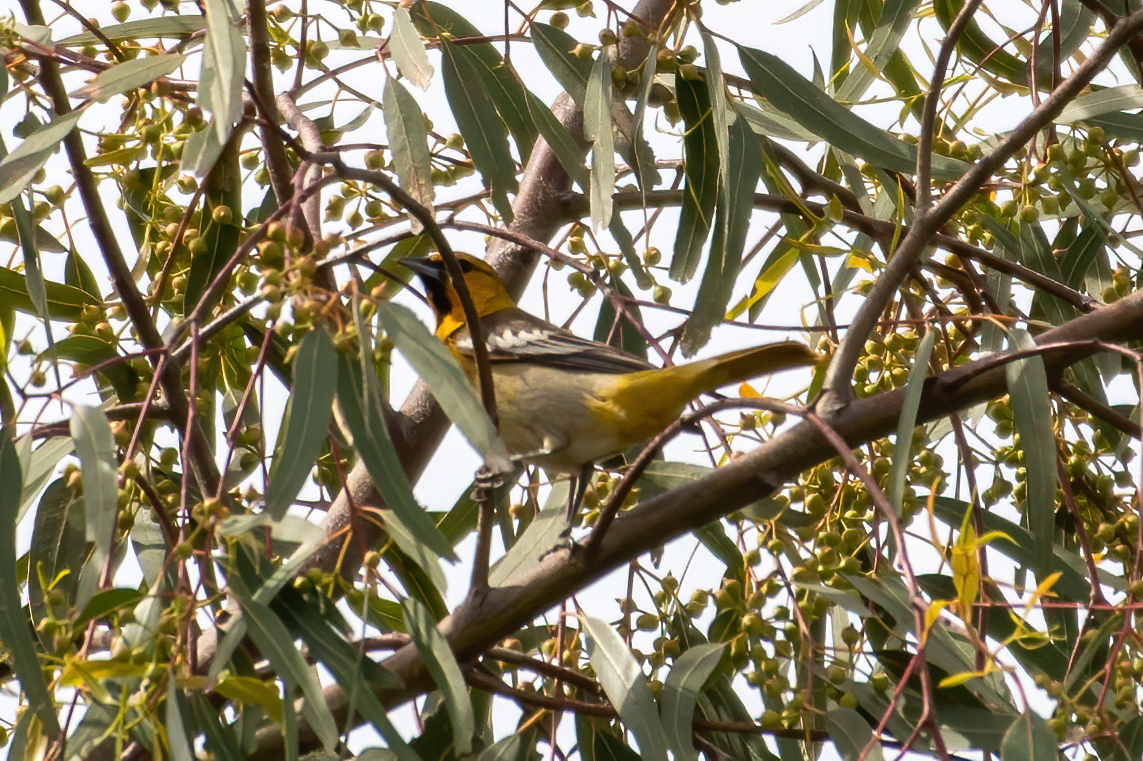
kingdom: Animalia
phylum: Chordata
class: Aves
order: Passeriformes
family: Icteridae
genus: Icterus
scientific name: Icterus bullockii
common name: Bullock's oriole
